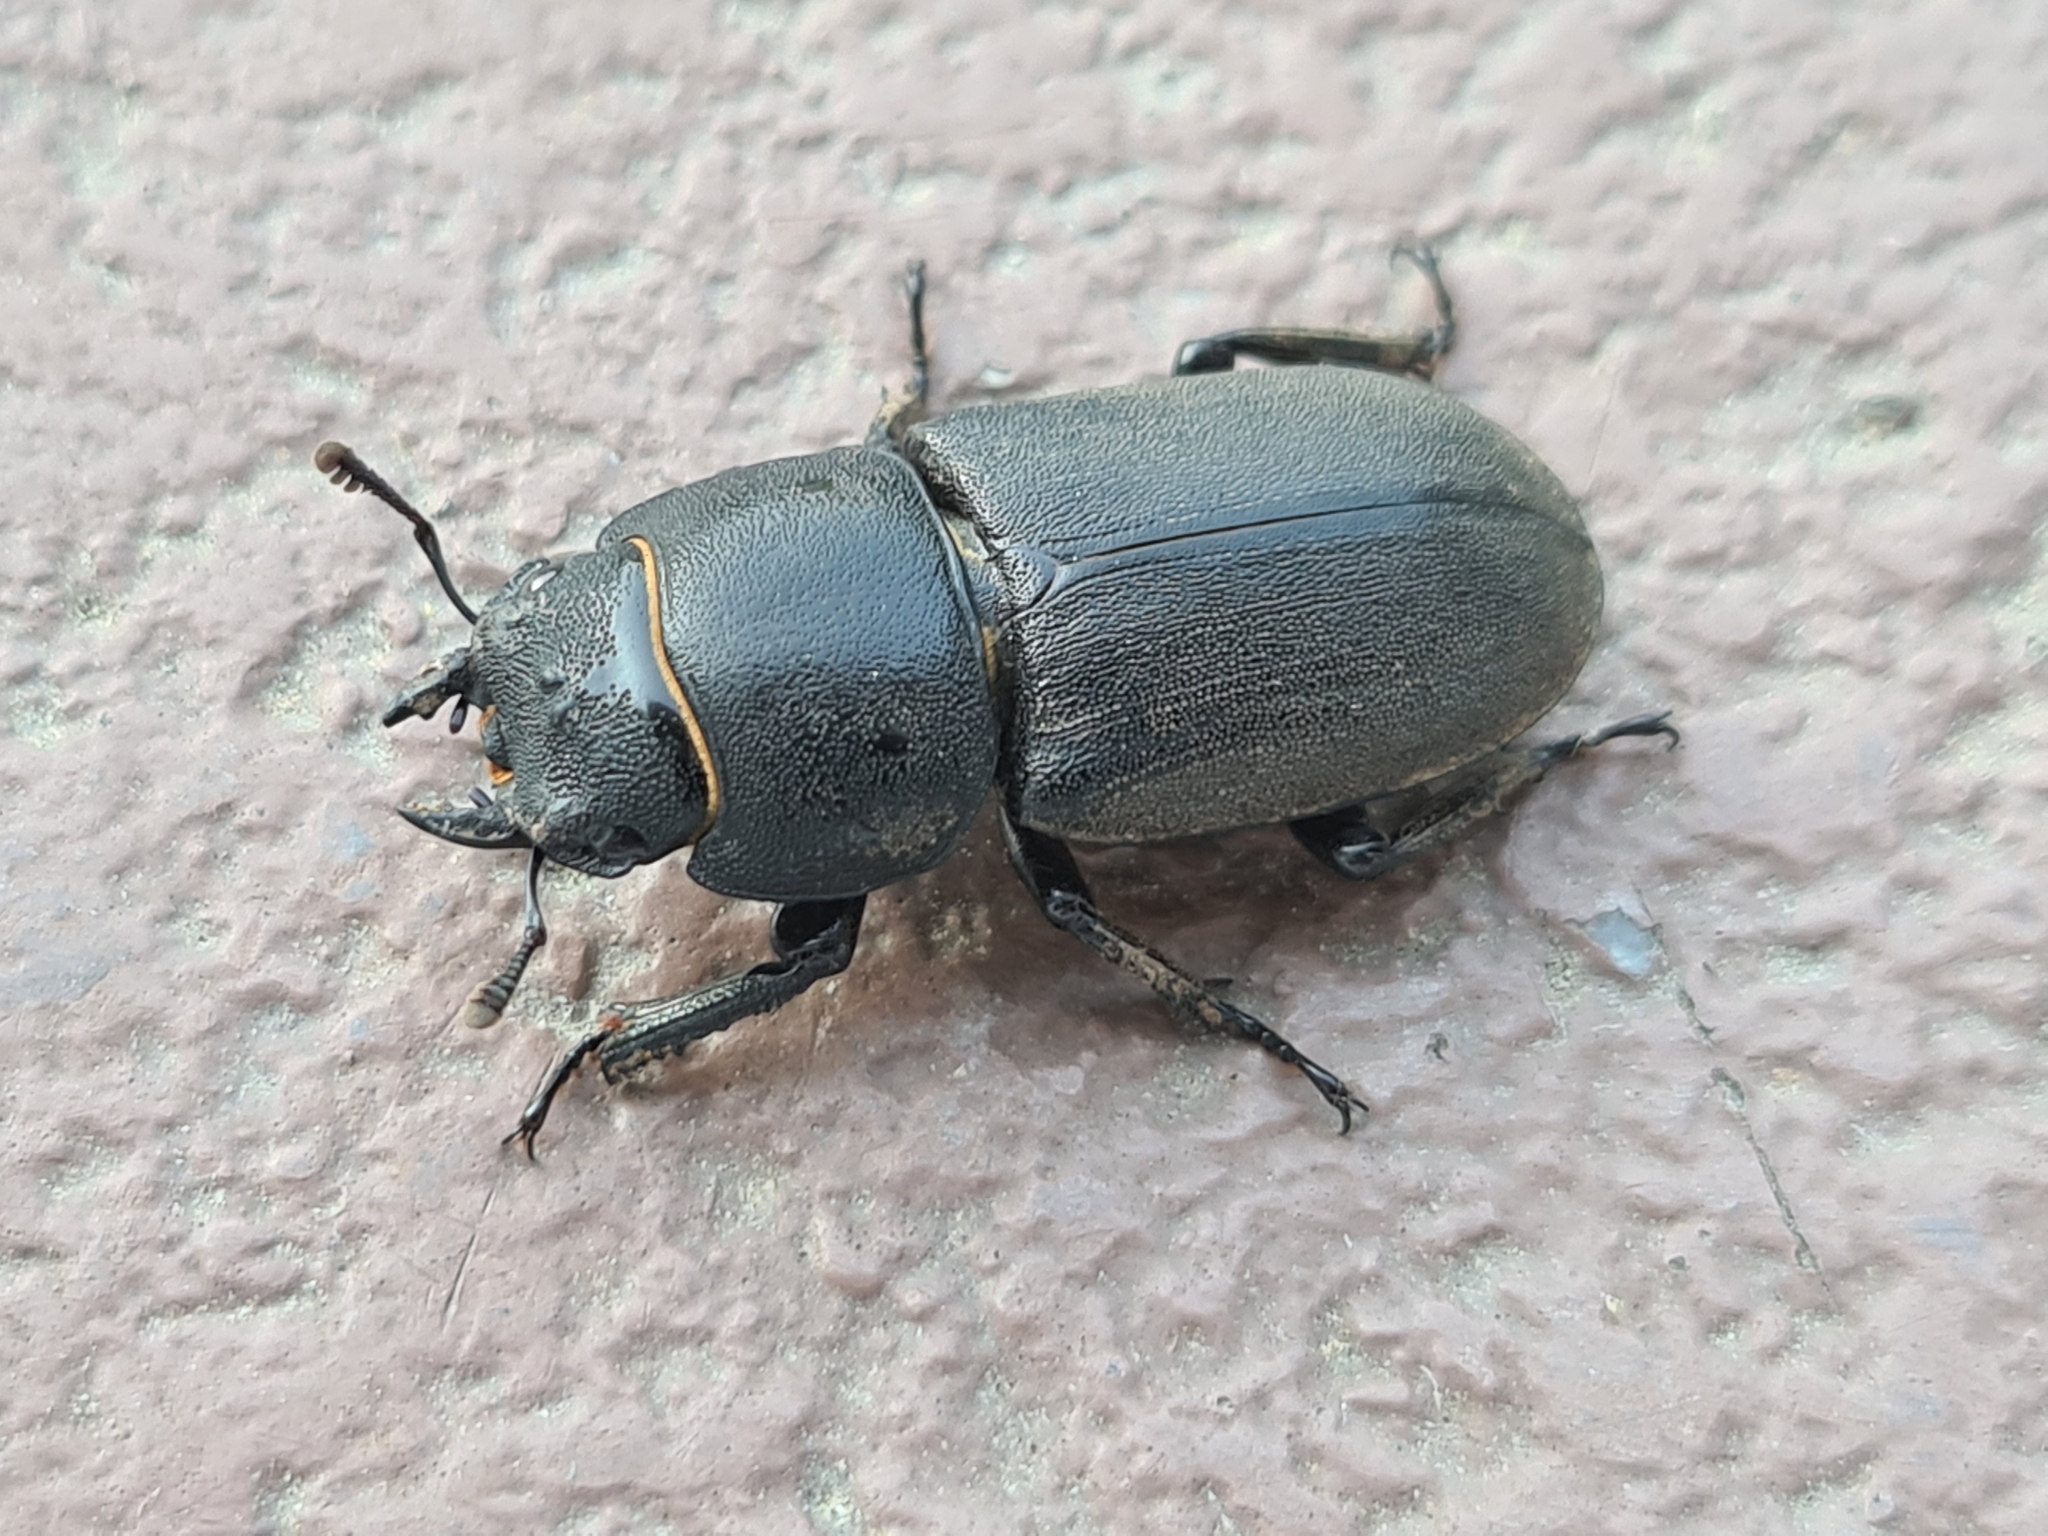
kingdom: Animalia
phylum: Arthropoda
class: Insecta
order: Coleoptera
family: Lucanidae
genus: Dorcus
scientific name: Dorcus parallelipipedus
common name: Lesser stag beetle
